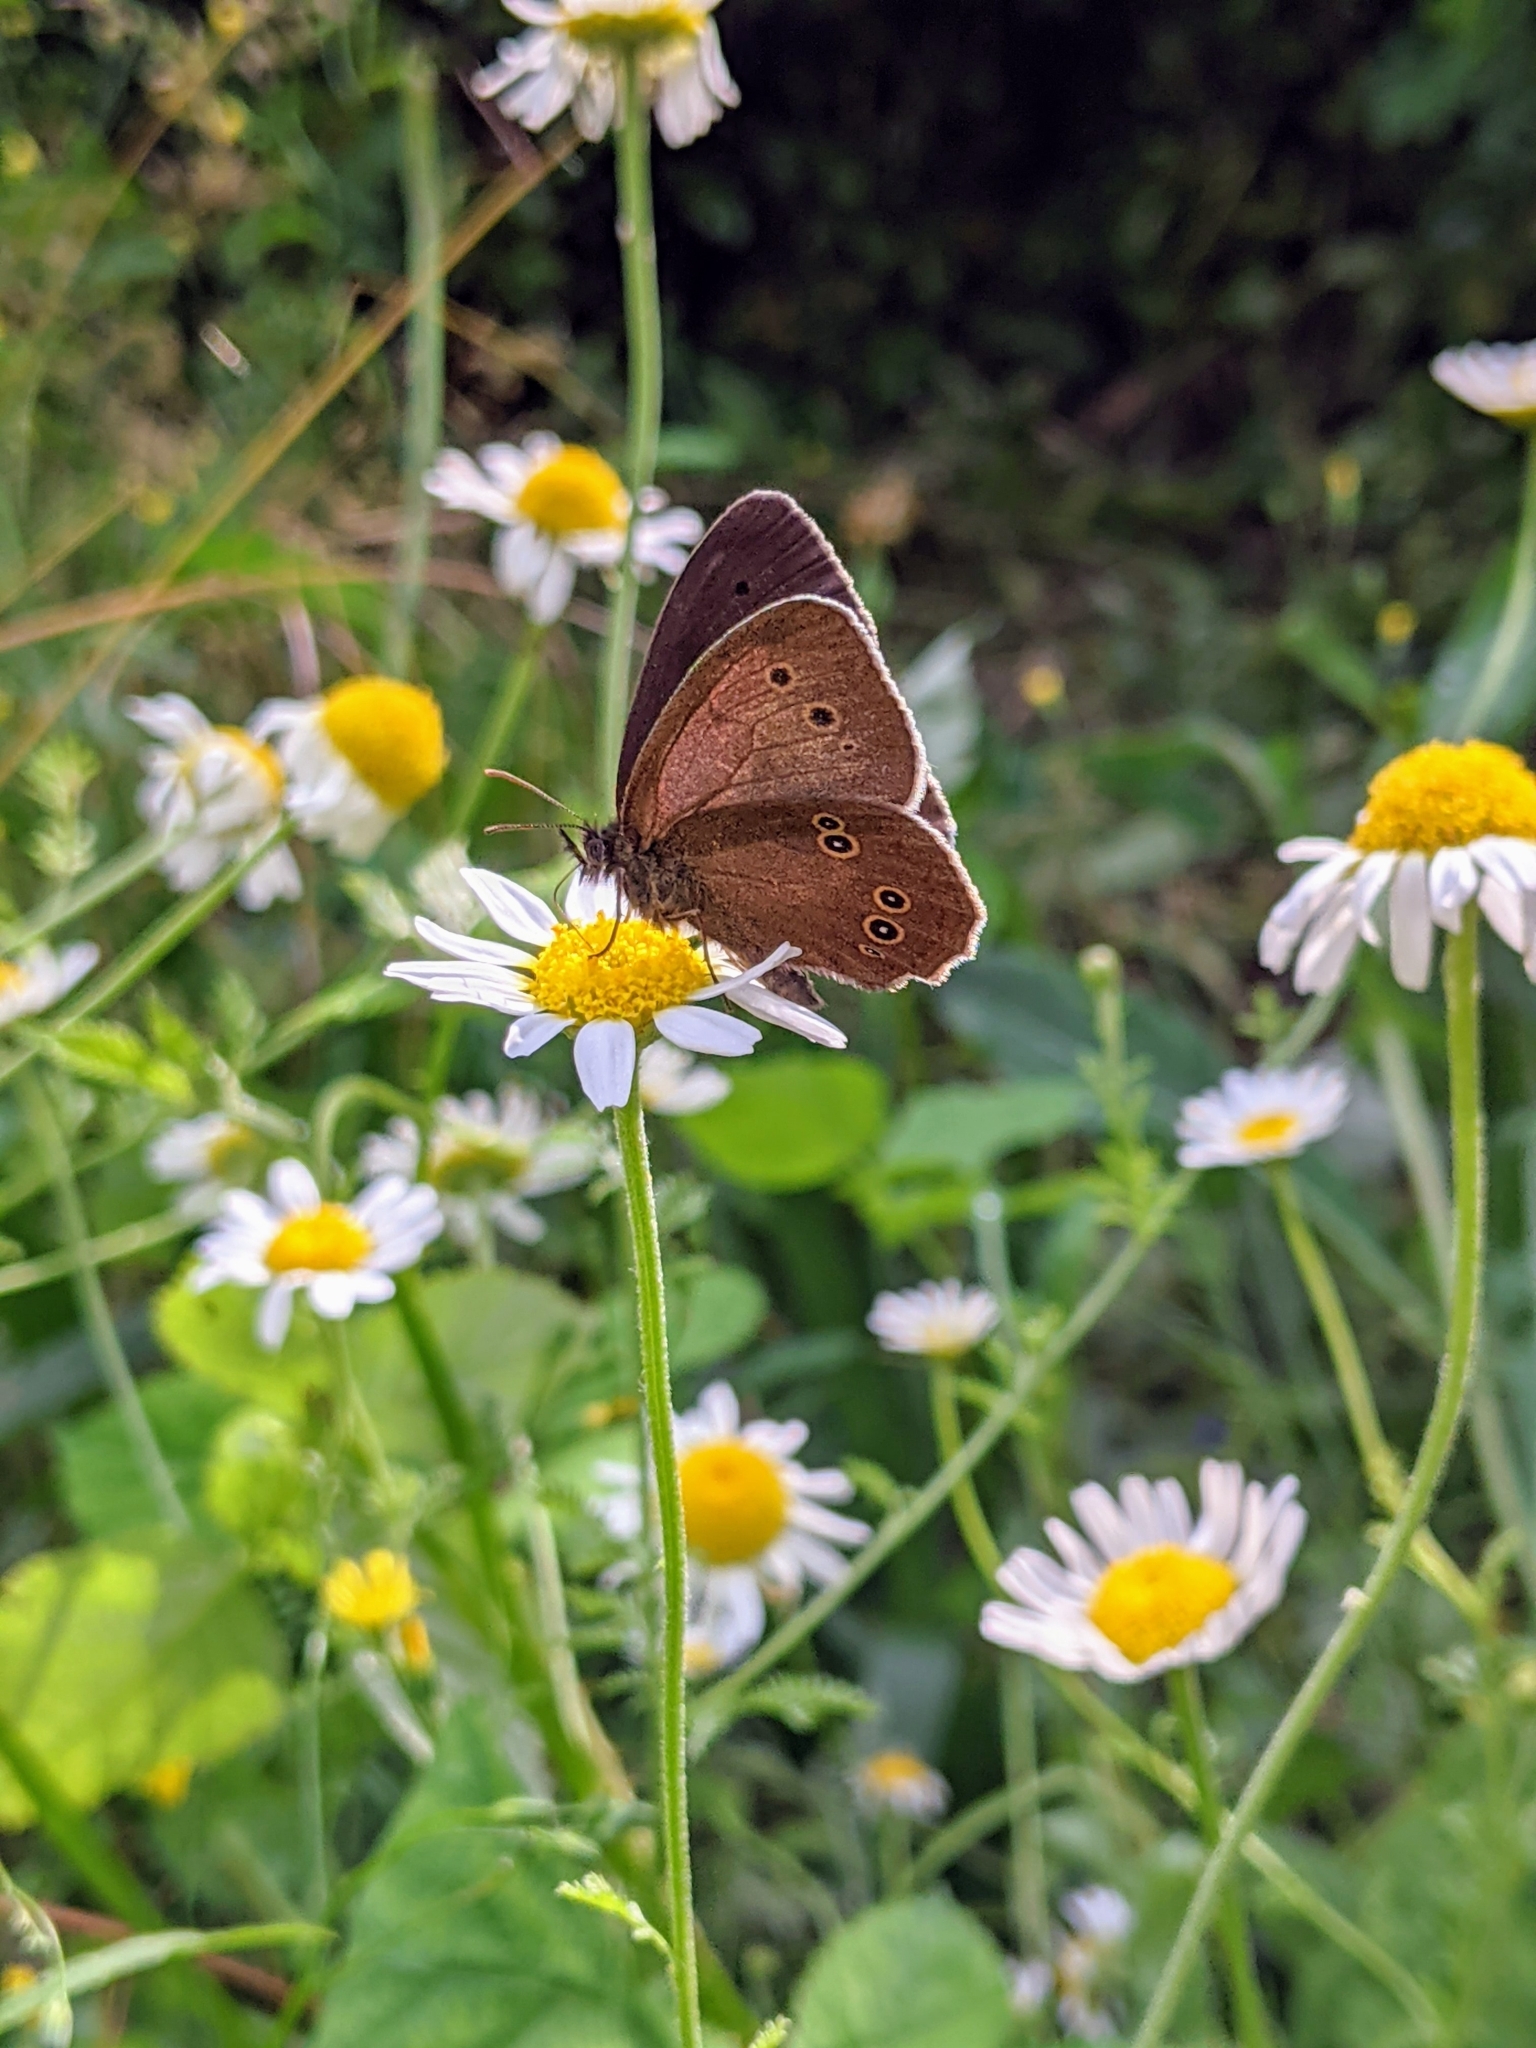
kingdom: Animalia
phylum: Arthropoda
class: Insecta
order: Lepidoptera
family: Nymphalidae
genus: Aphantopus
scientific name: Aphantopus hyperantus
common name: Ringlet
